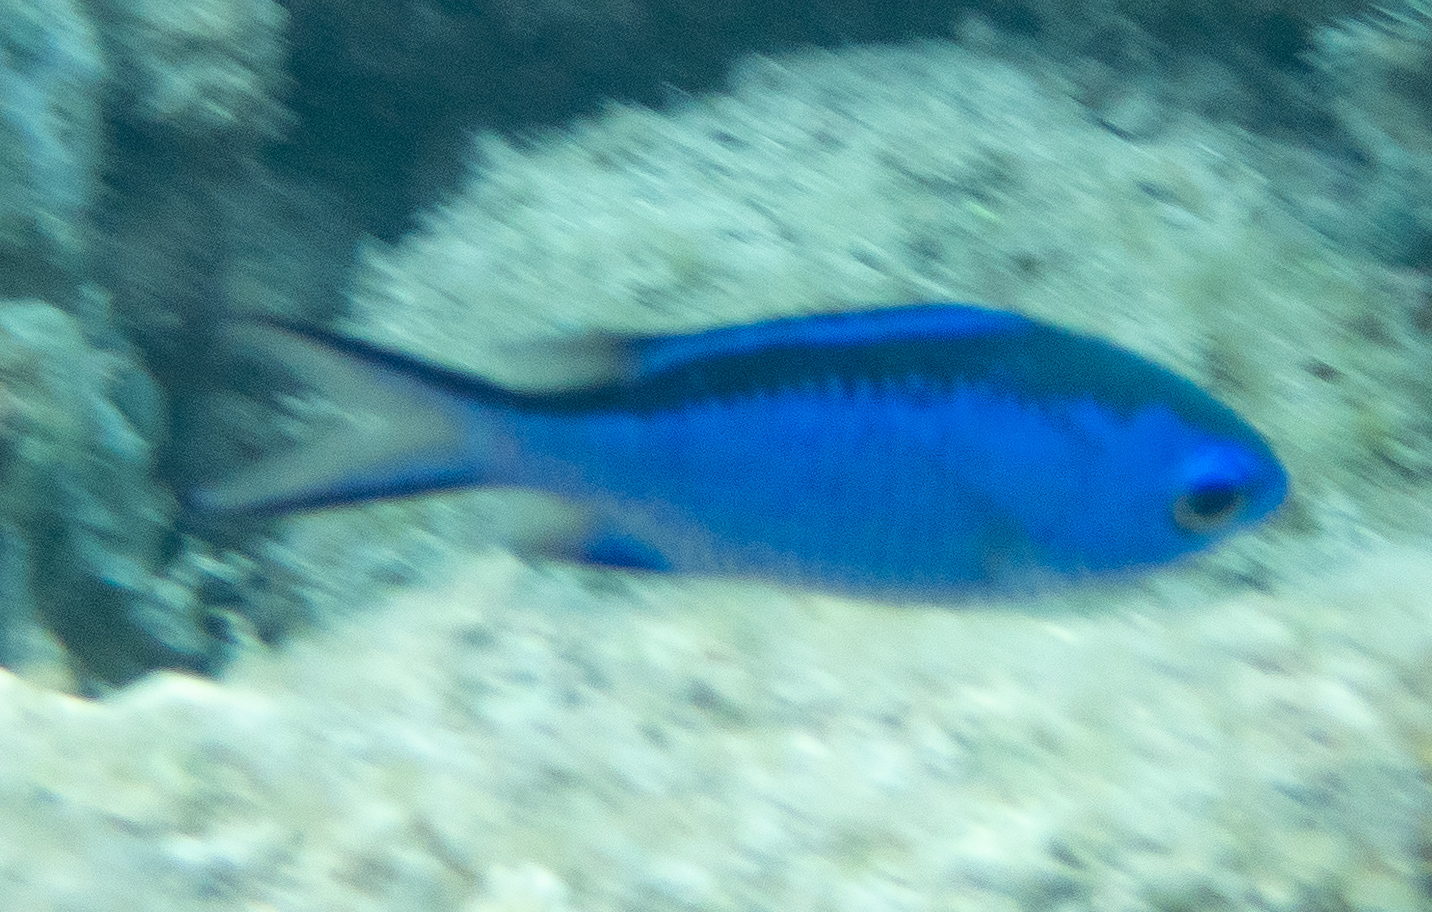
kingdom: Animalia
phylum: Chordata
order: Perciformes
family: Pomacentridae
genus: Chromis
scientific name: Chromis cyanea
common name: Blue chromis
